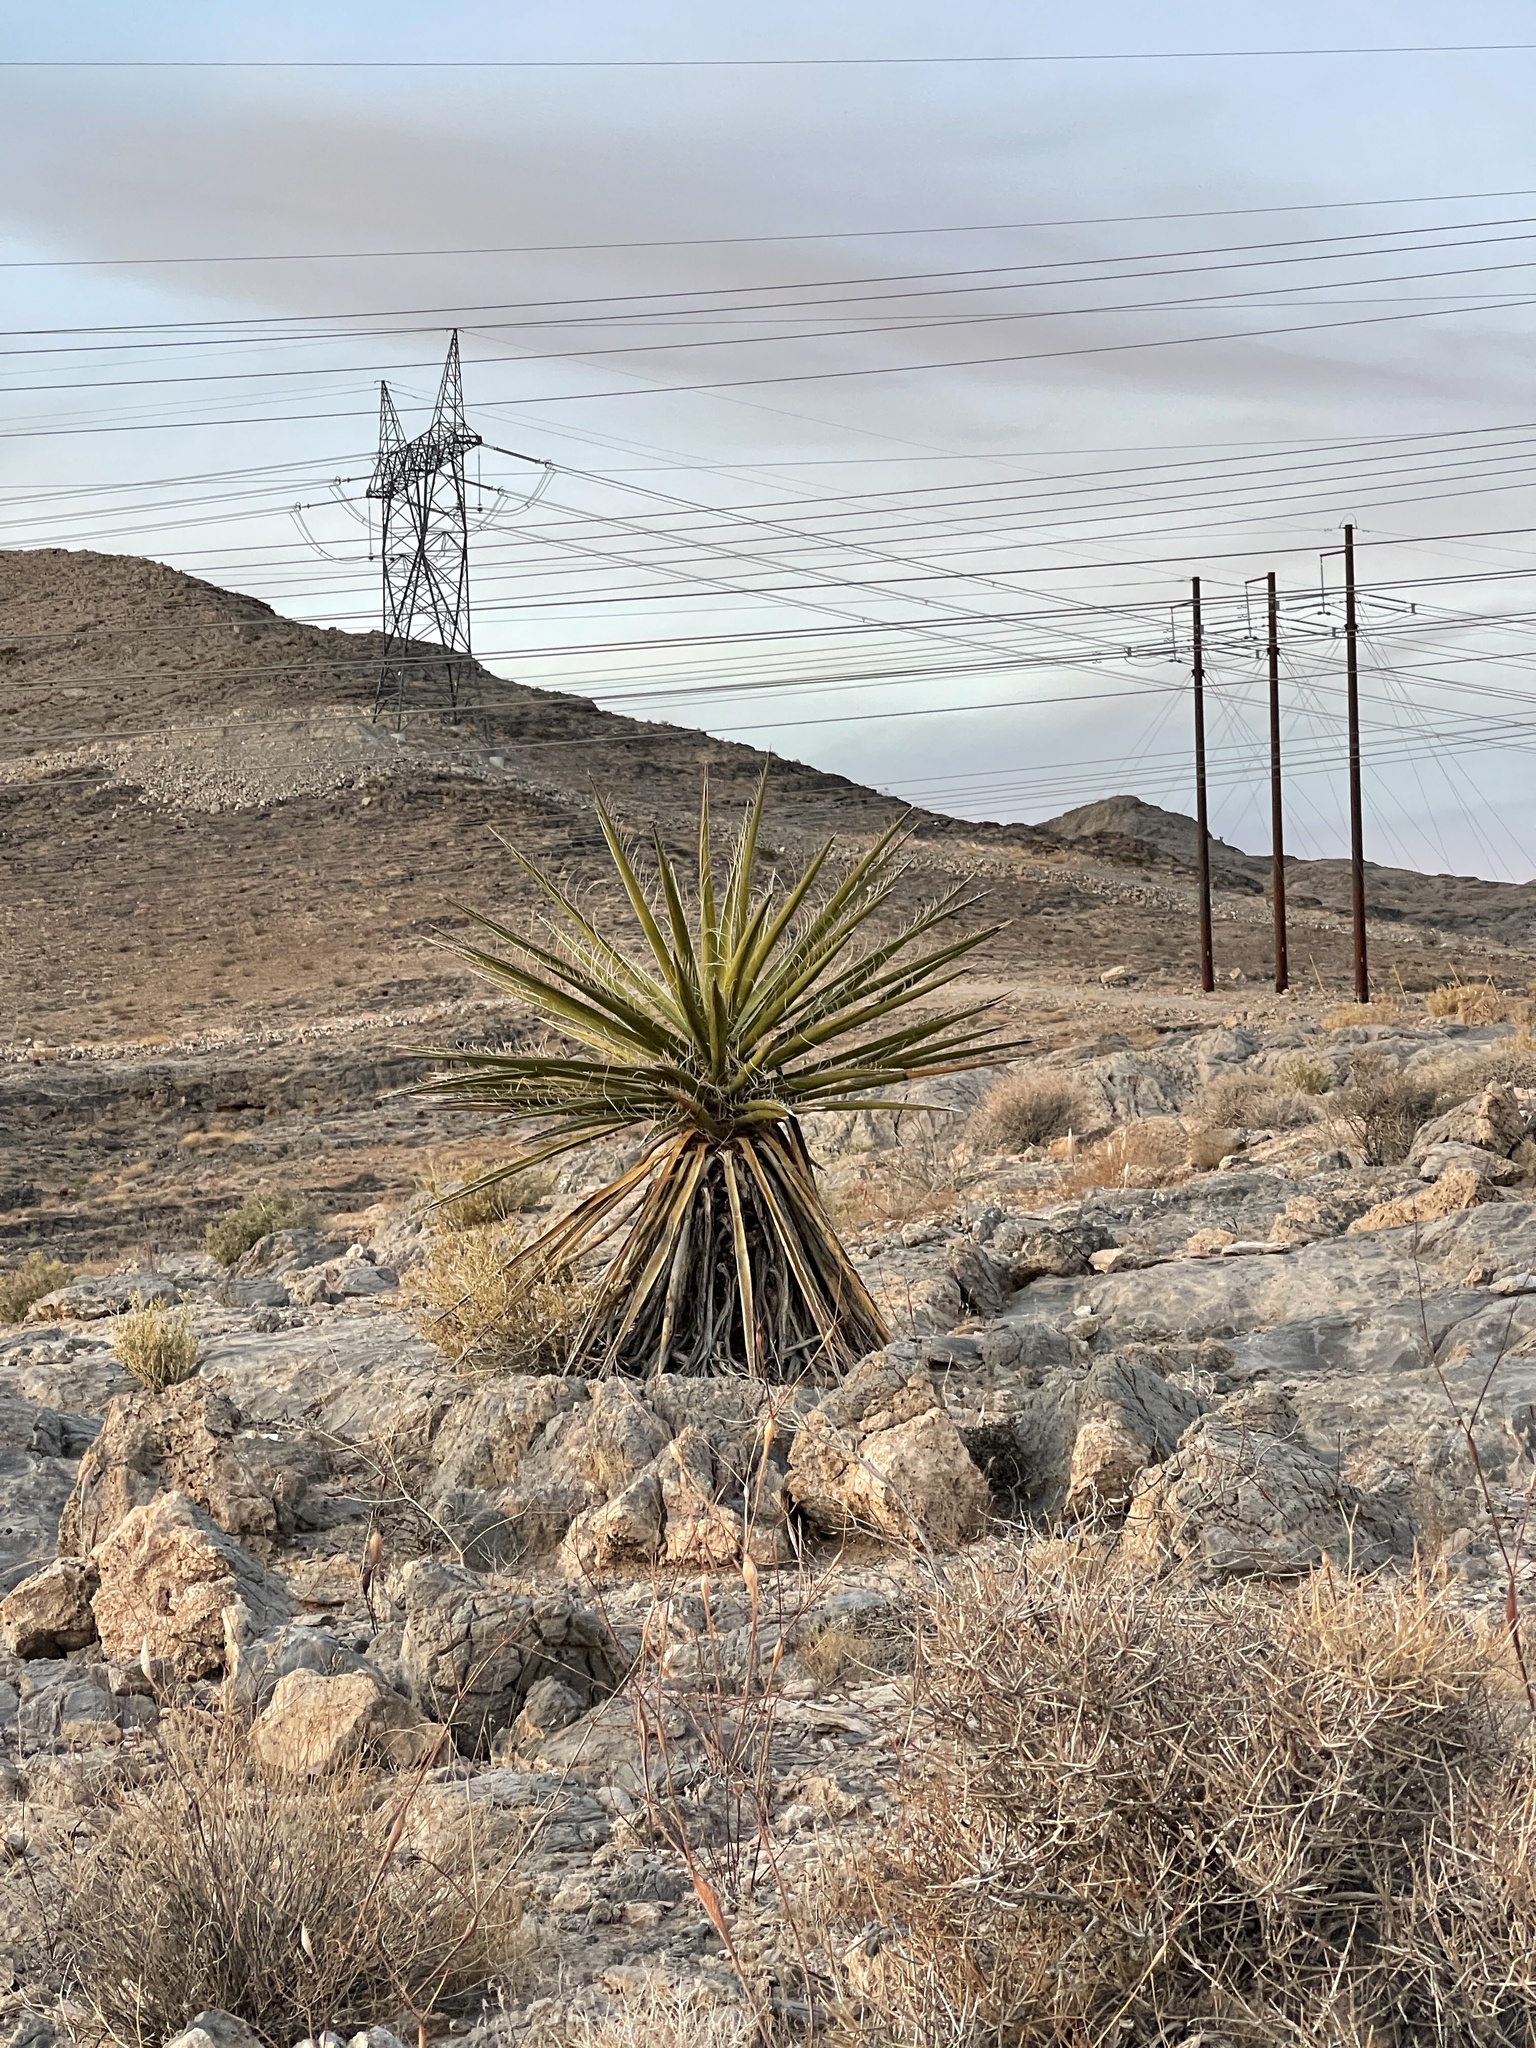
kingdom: Plantae
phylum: Tracheophyta
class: Liliopsida
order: Asparagales
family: Asparagaceae
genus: Yucca
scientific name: Yucca schidigera
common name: Mojave yucca
